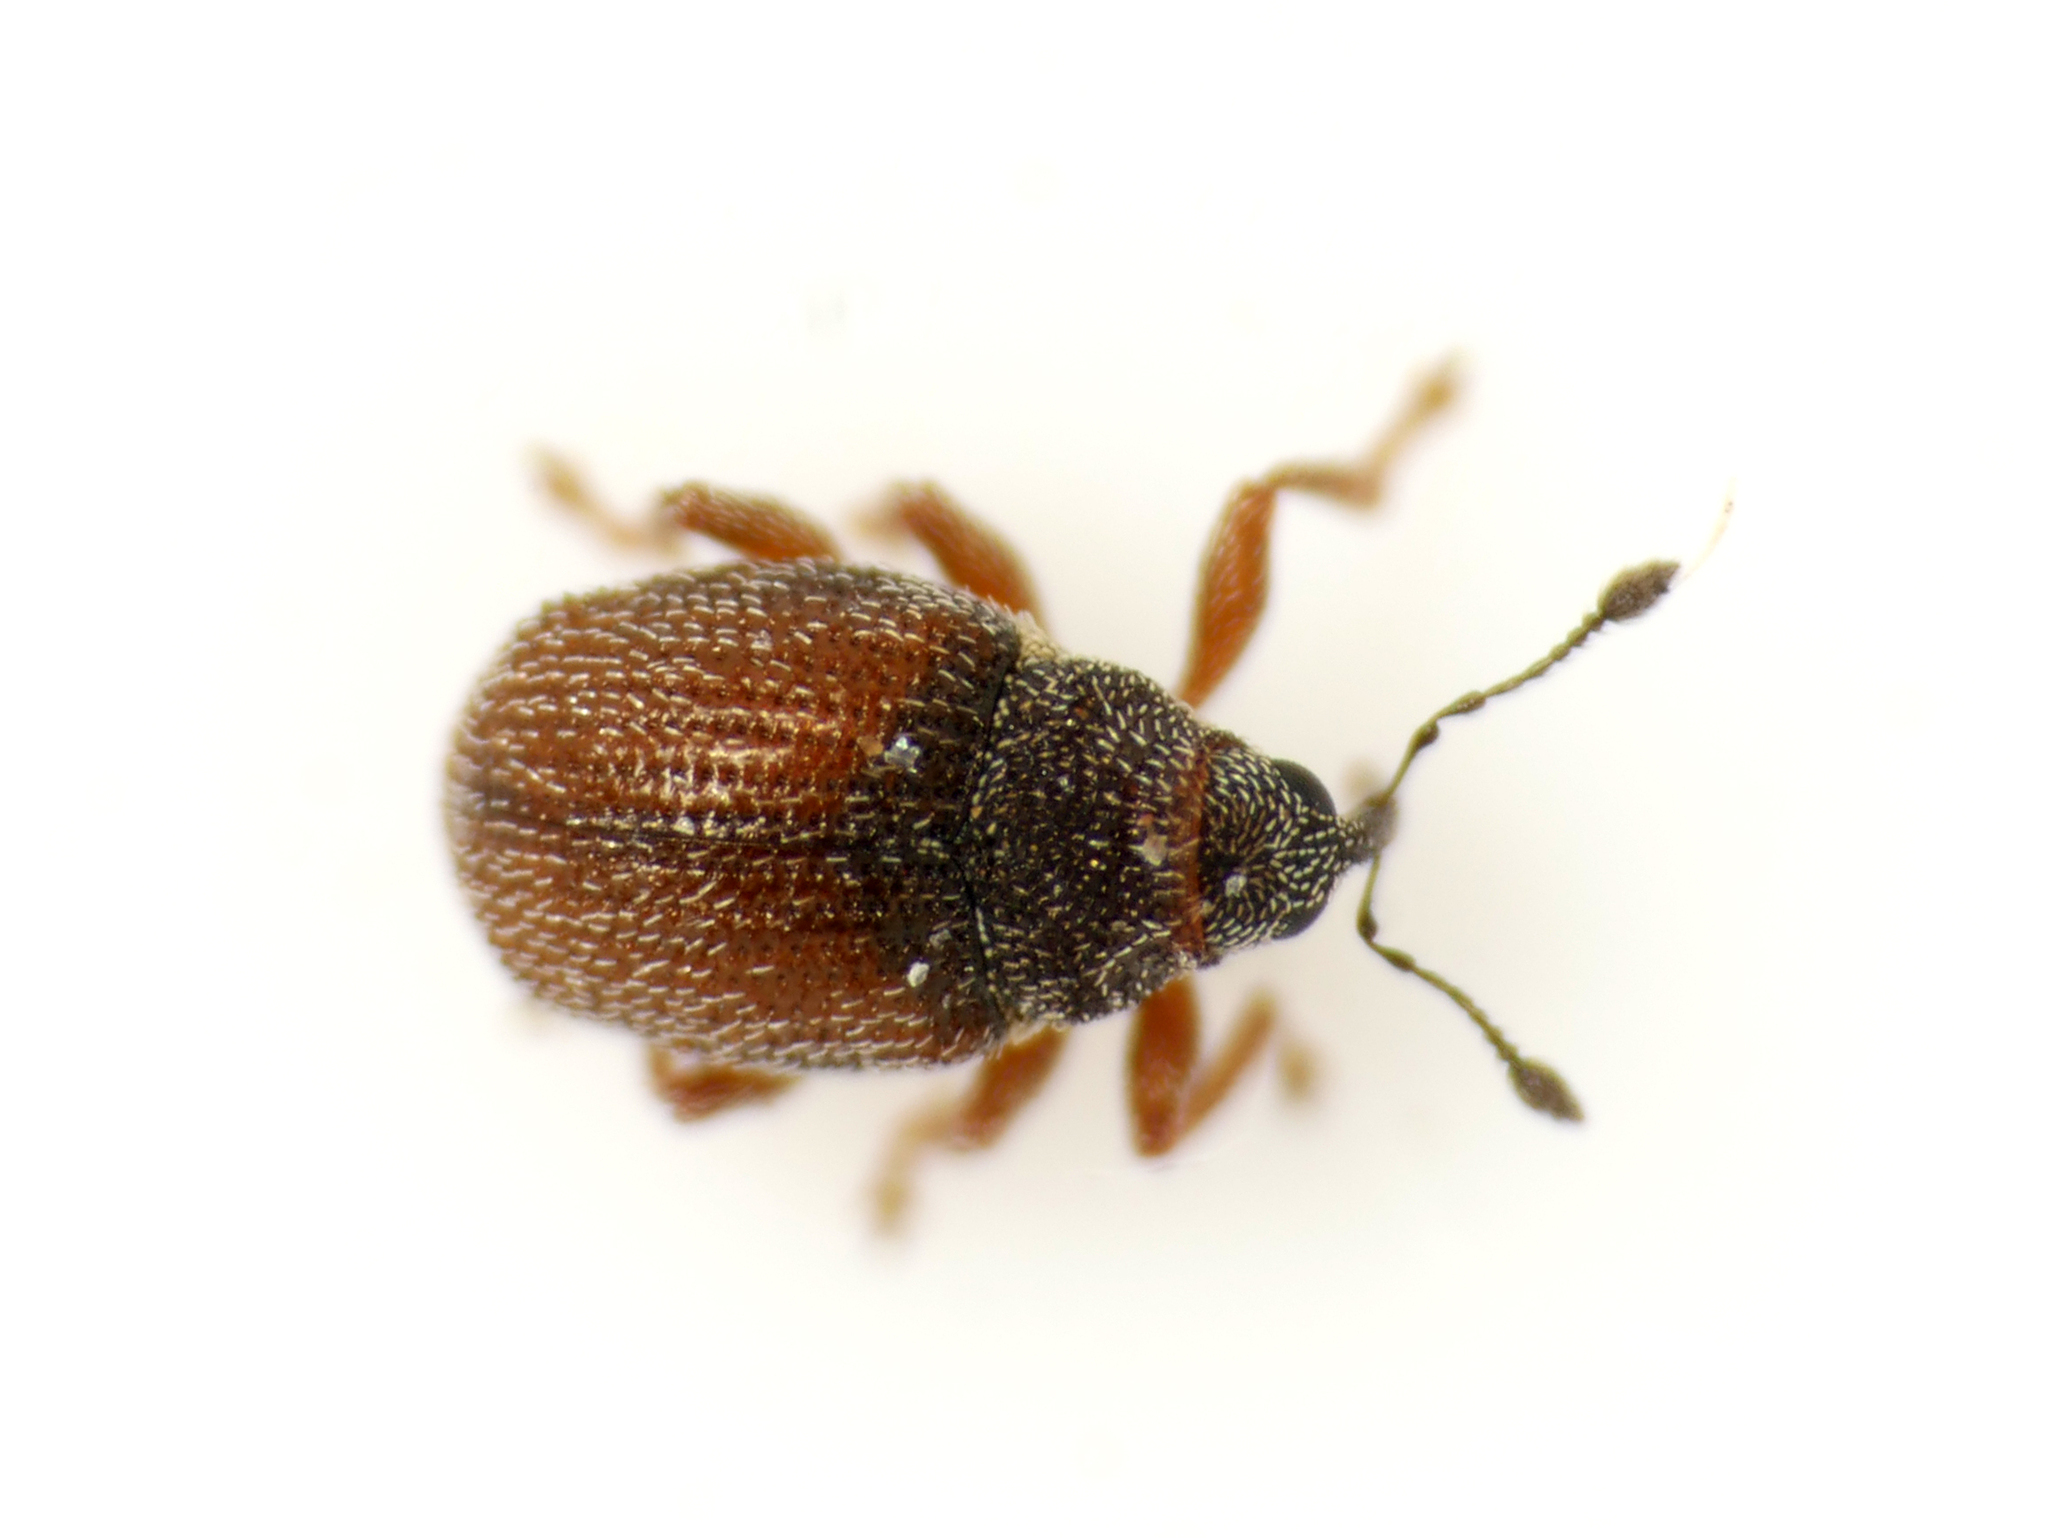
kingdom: Animalia
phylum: Arthropoda
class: Insecta
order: Coleoptera
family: Curculionidae
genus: Rhynchaenus
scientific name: Rhynchaenus pumilio
